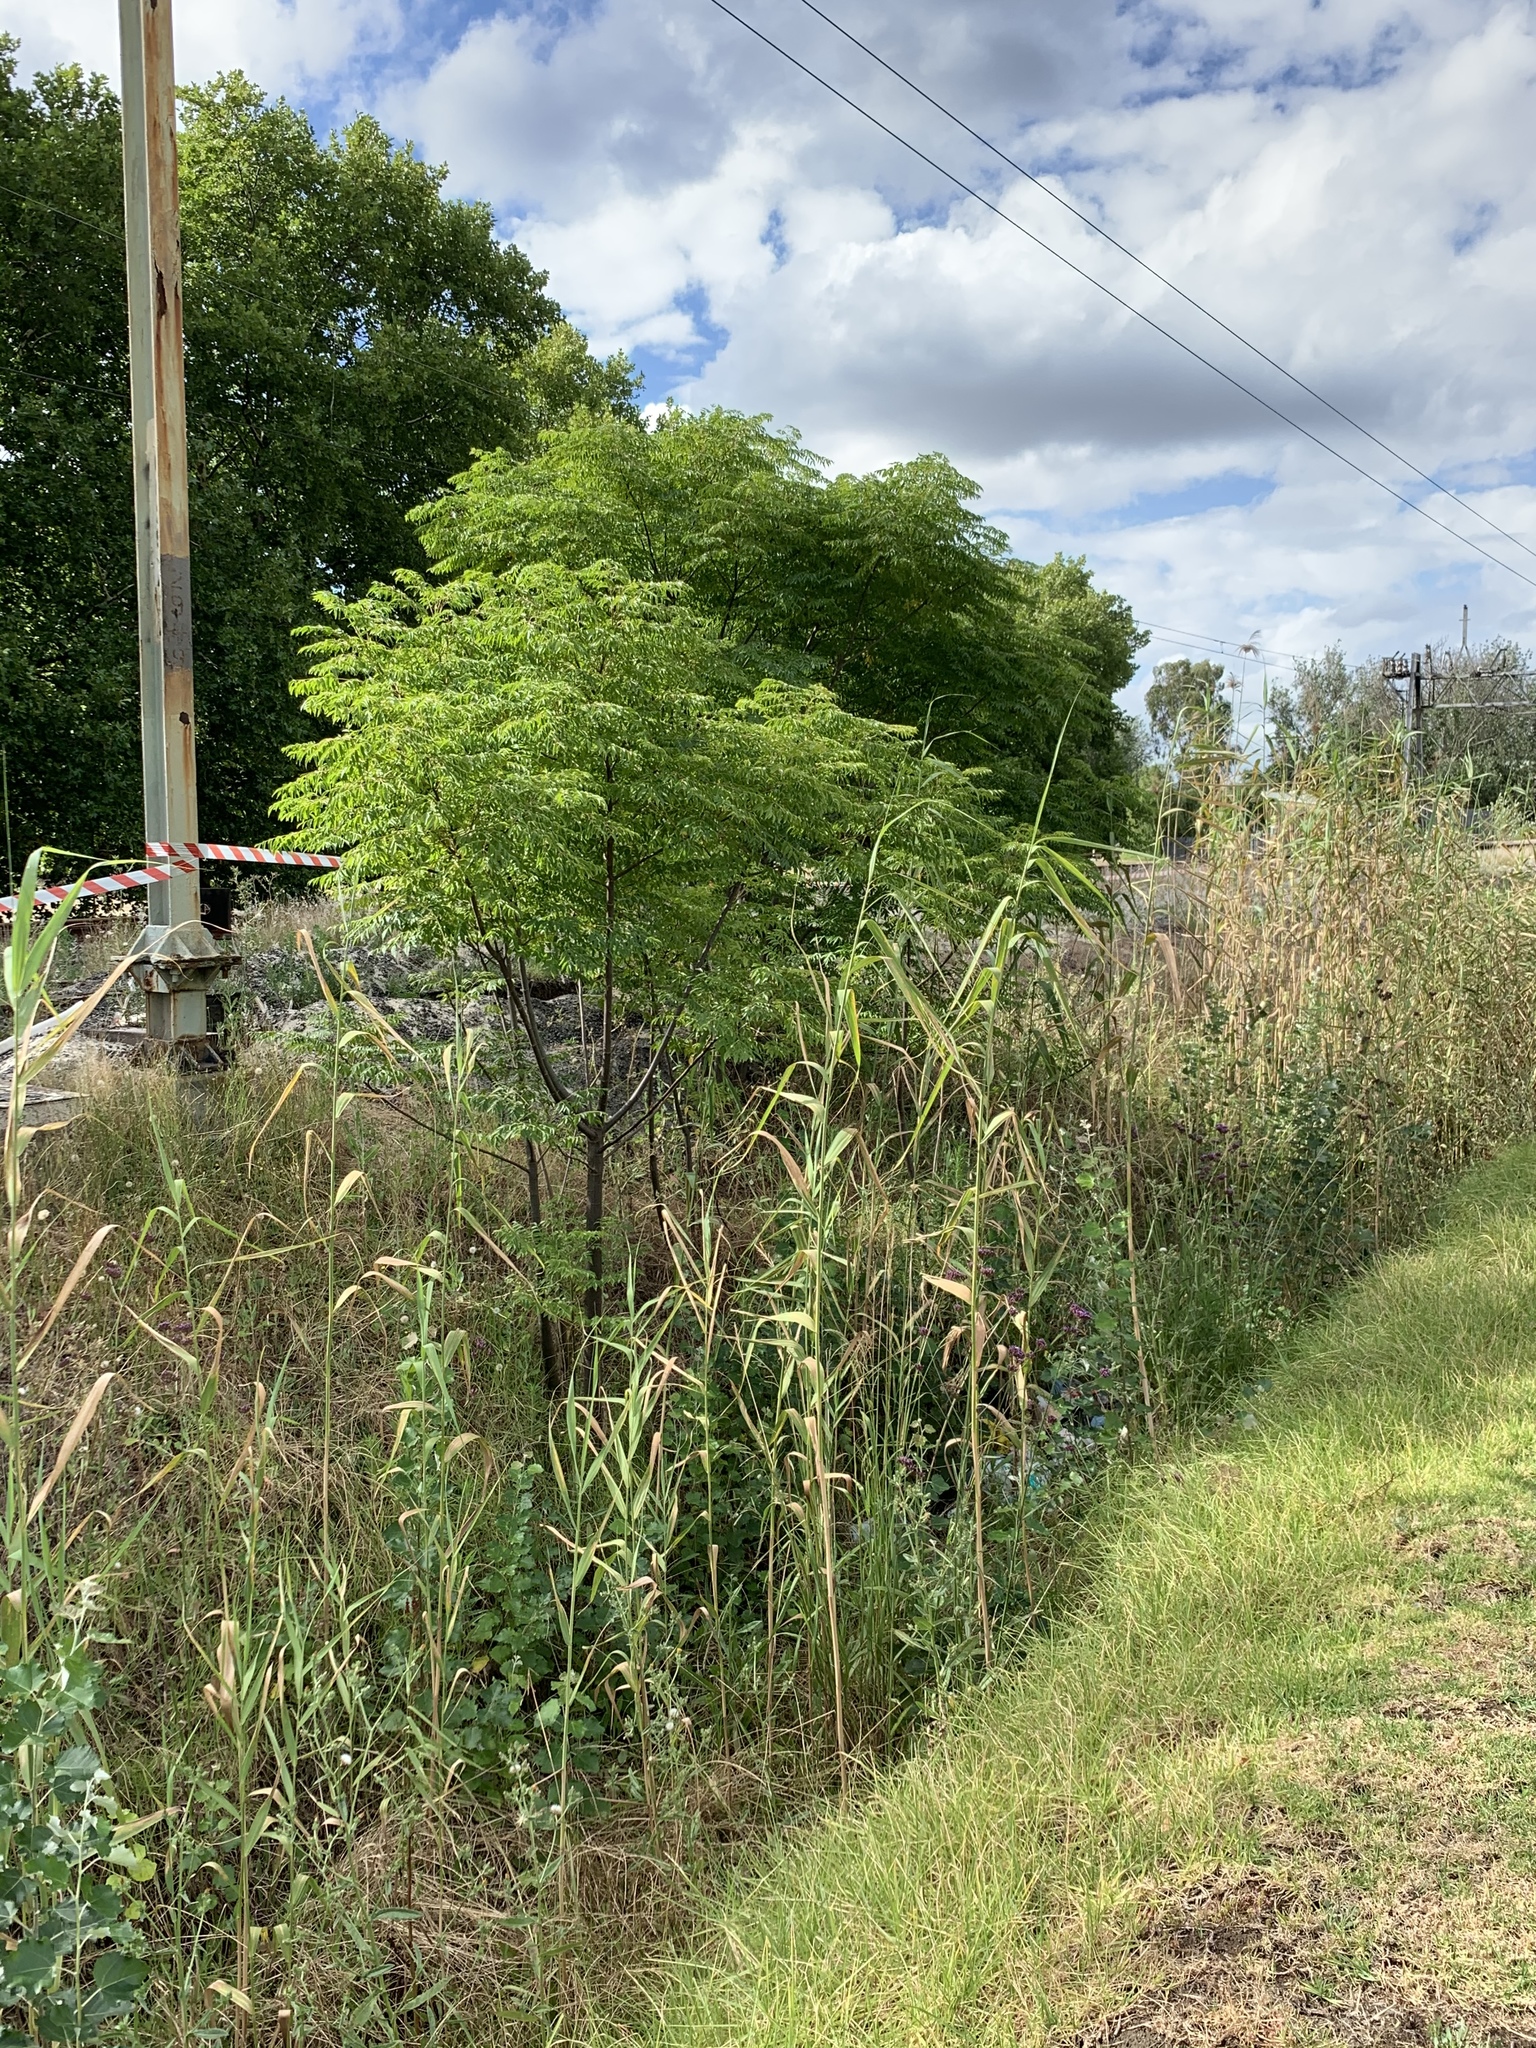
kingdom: Plantae
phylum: Tracheophyta
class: Magnoliopsida
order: Sapindales
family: Meliaceae
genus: Melia
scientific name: Melia azedarach
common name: Chinaberrytree
